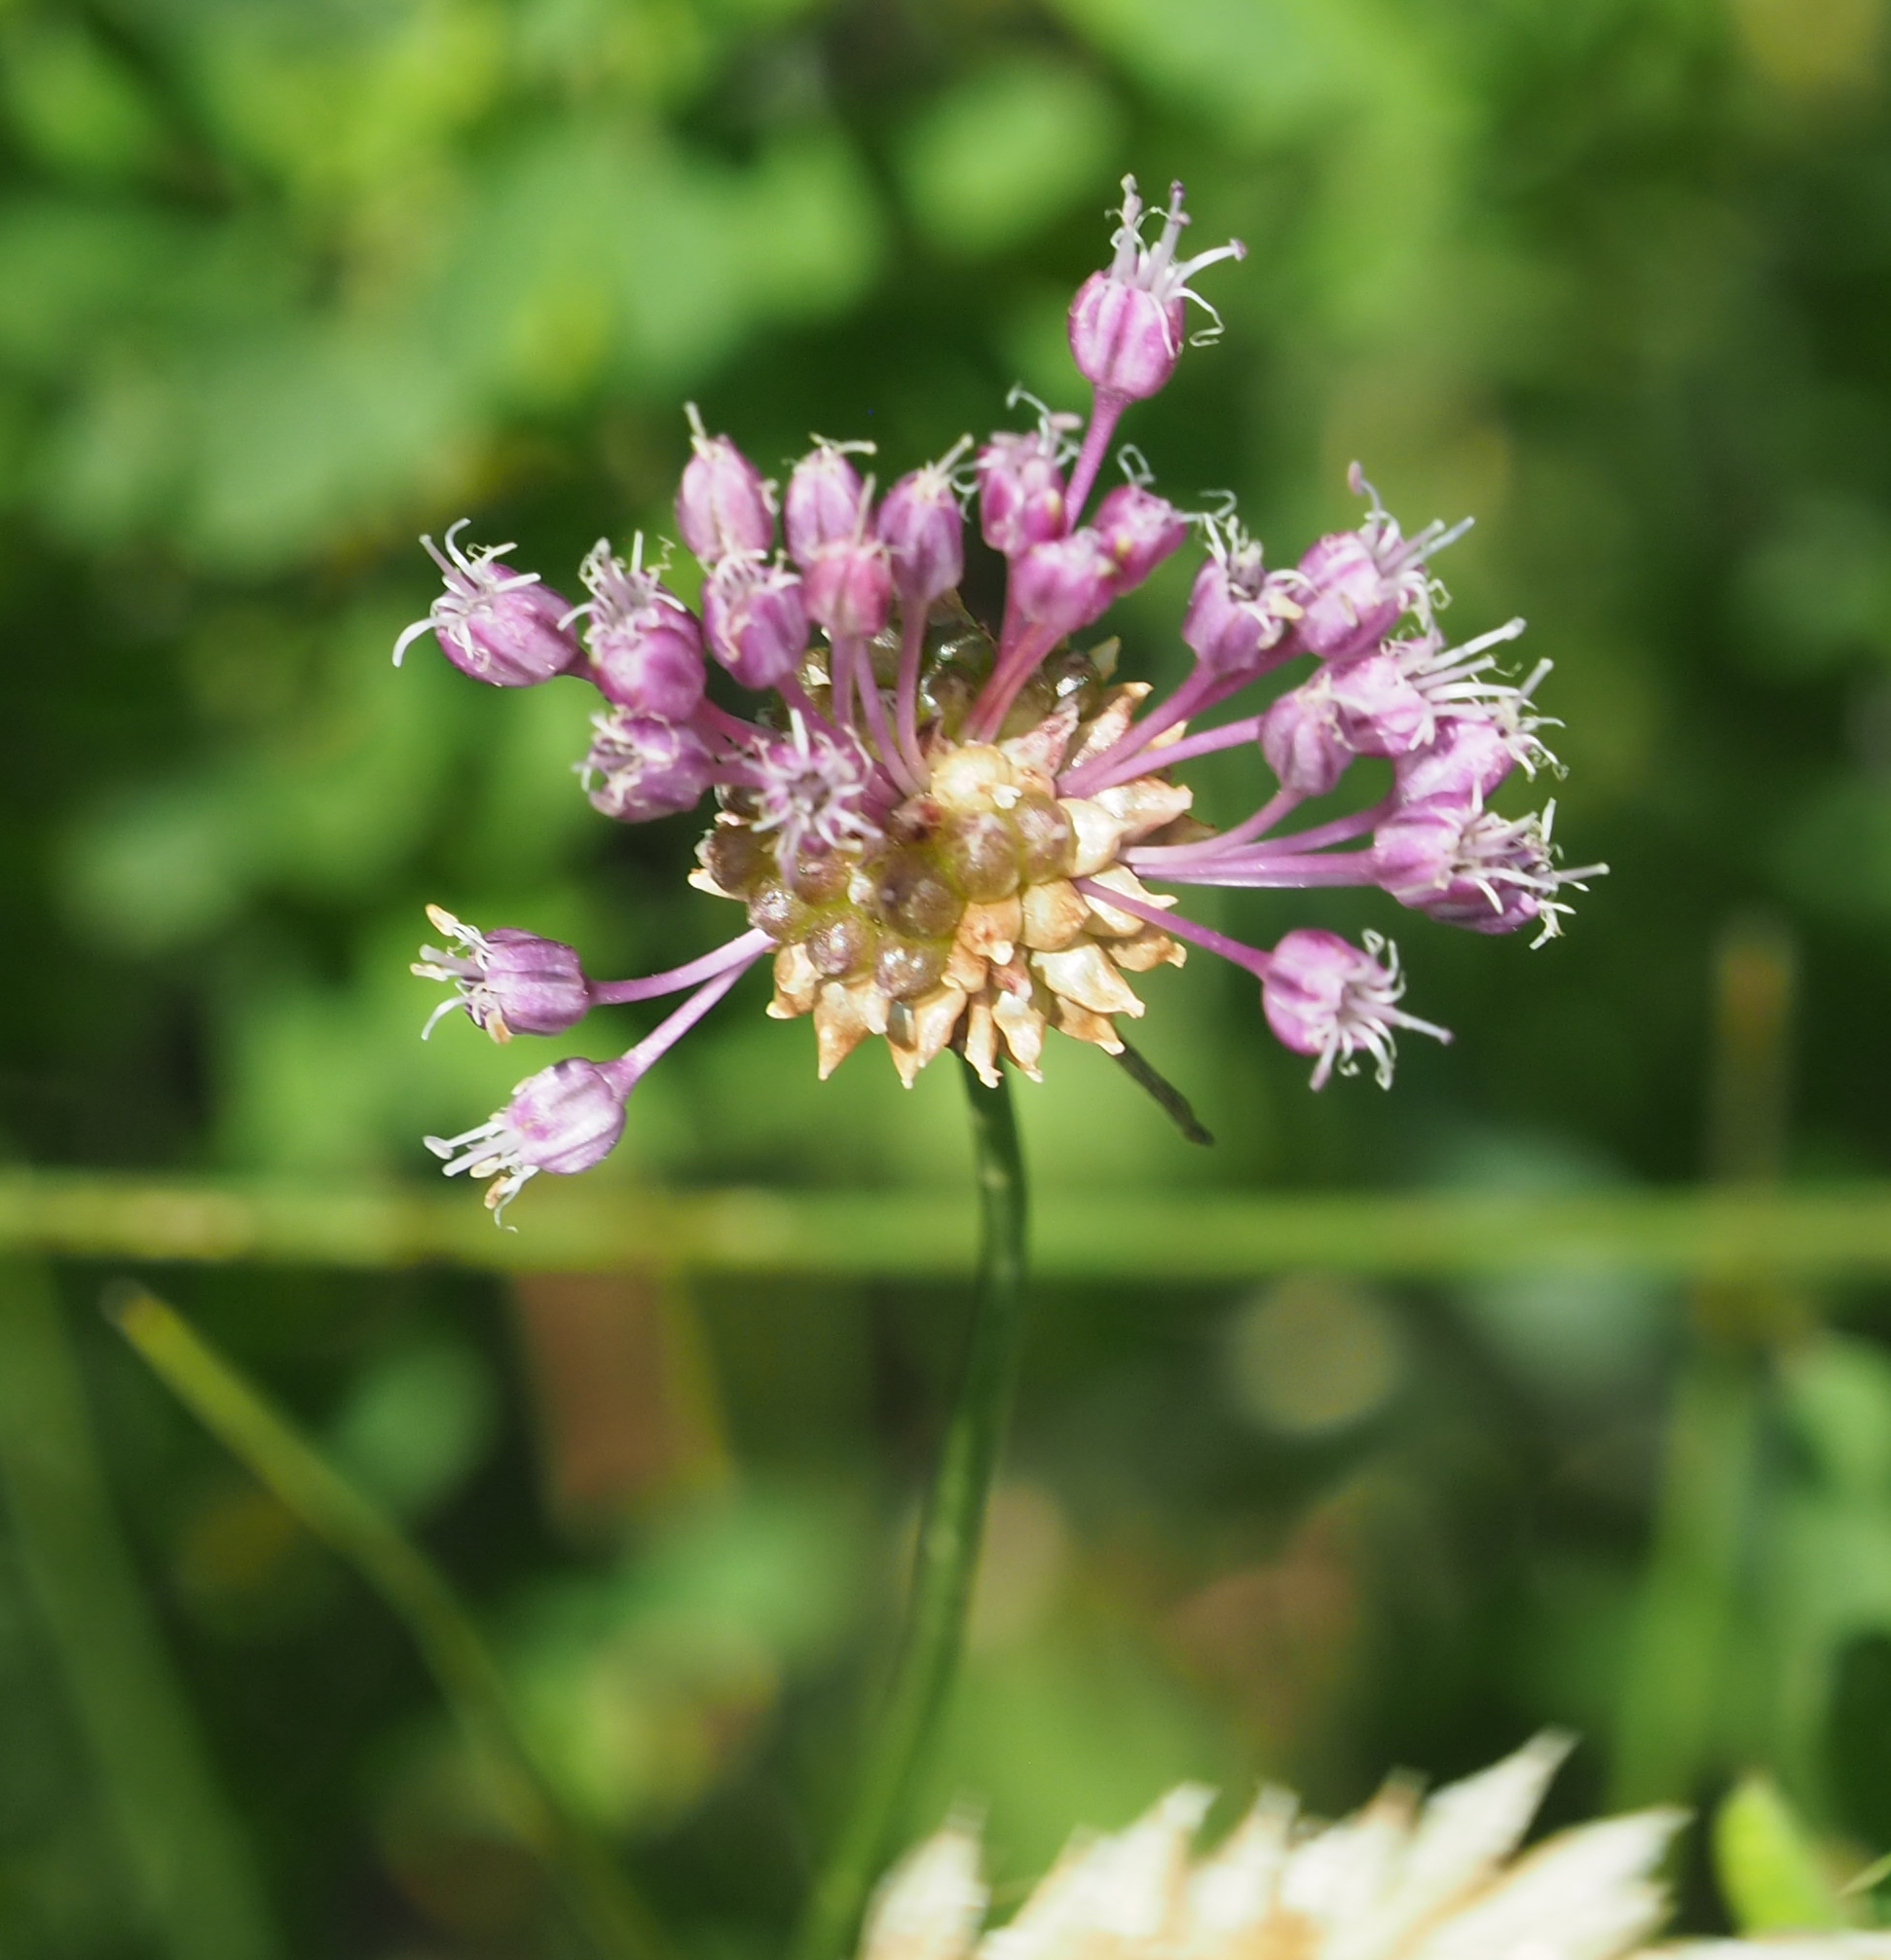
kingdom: Plantae
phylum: Tracheophyta
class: Liliopsida
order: Asparagales
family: Amaryllidaceae
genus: Allium
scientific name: Allium vineale
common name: Crow garlic
